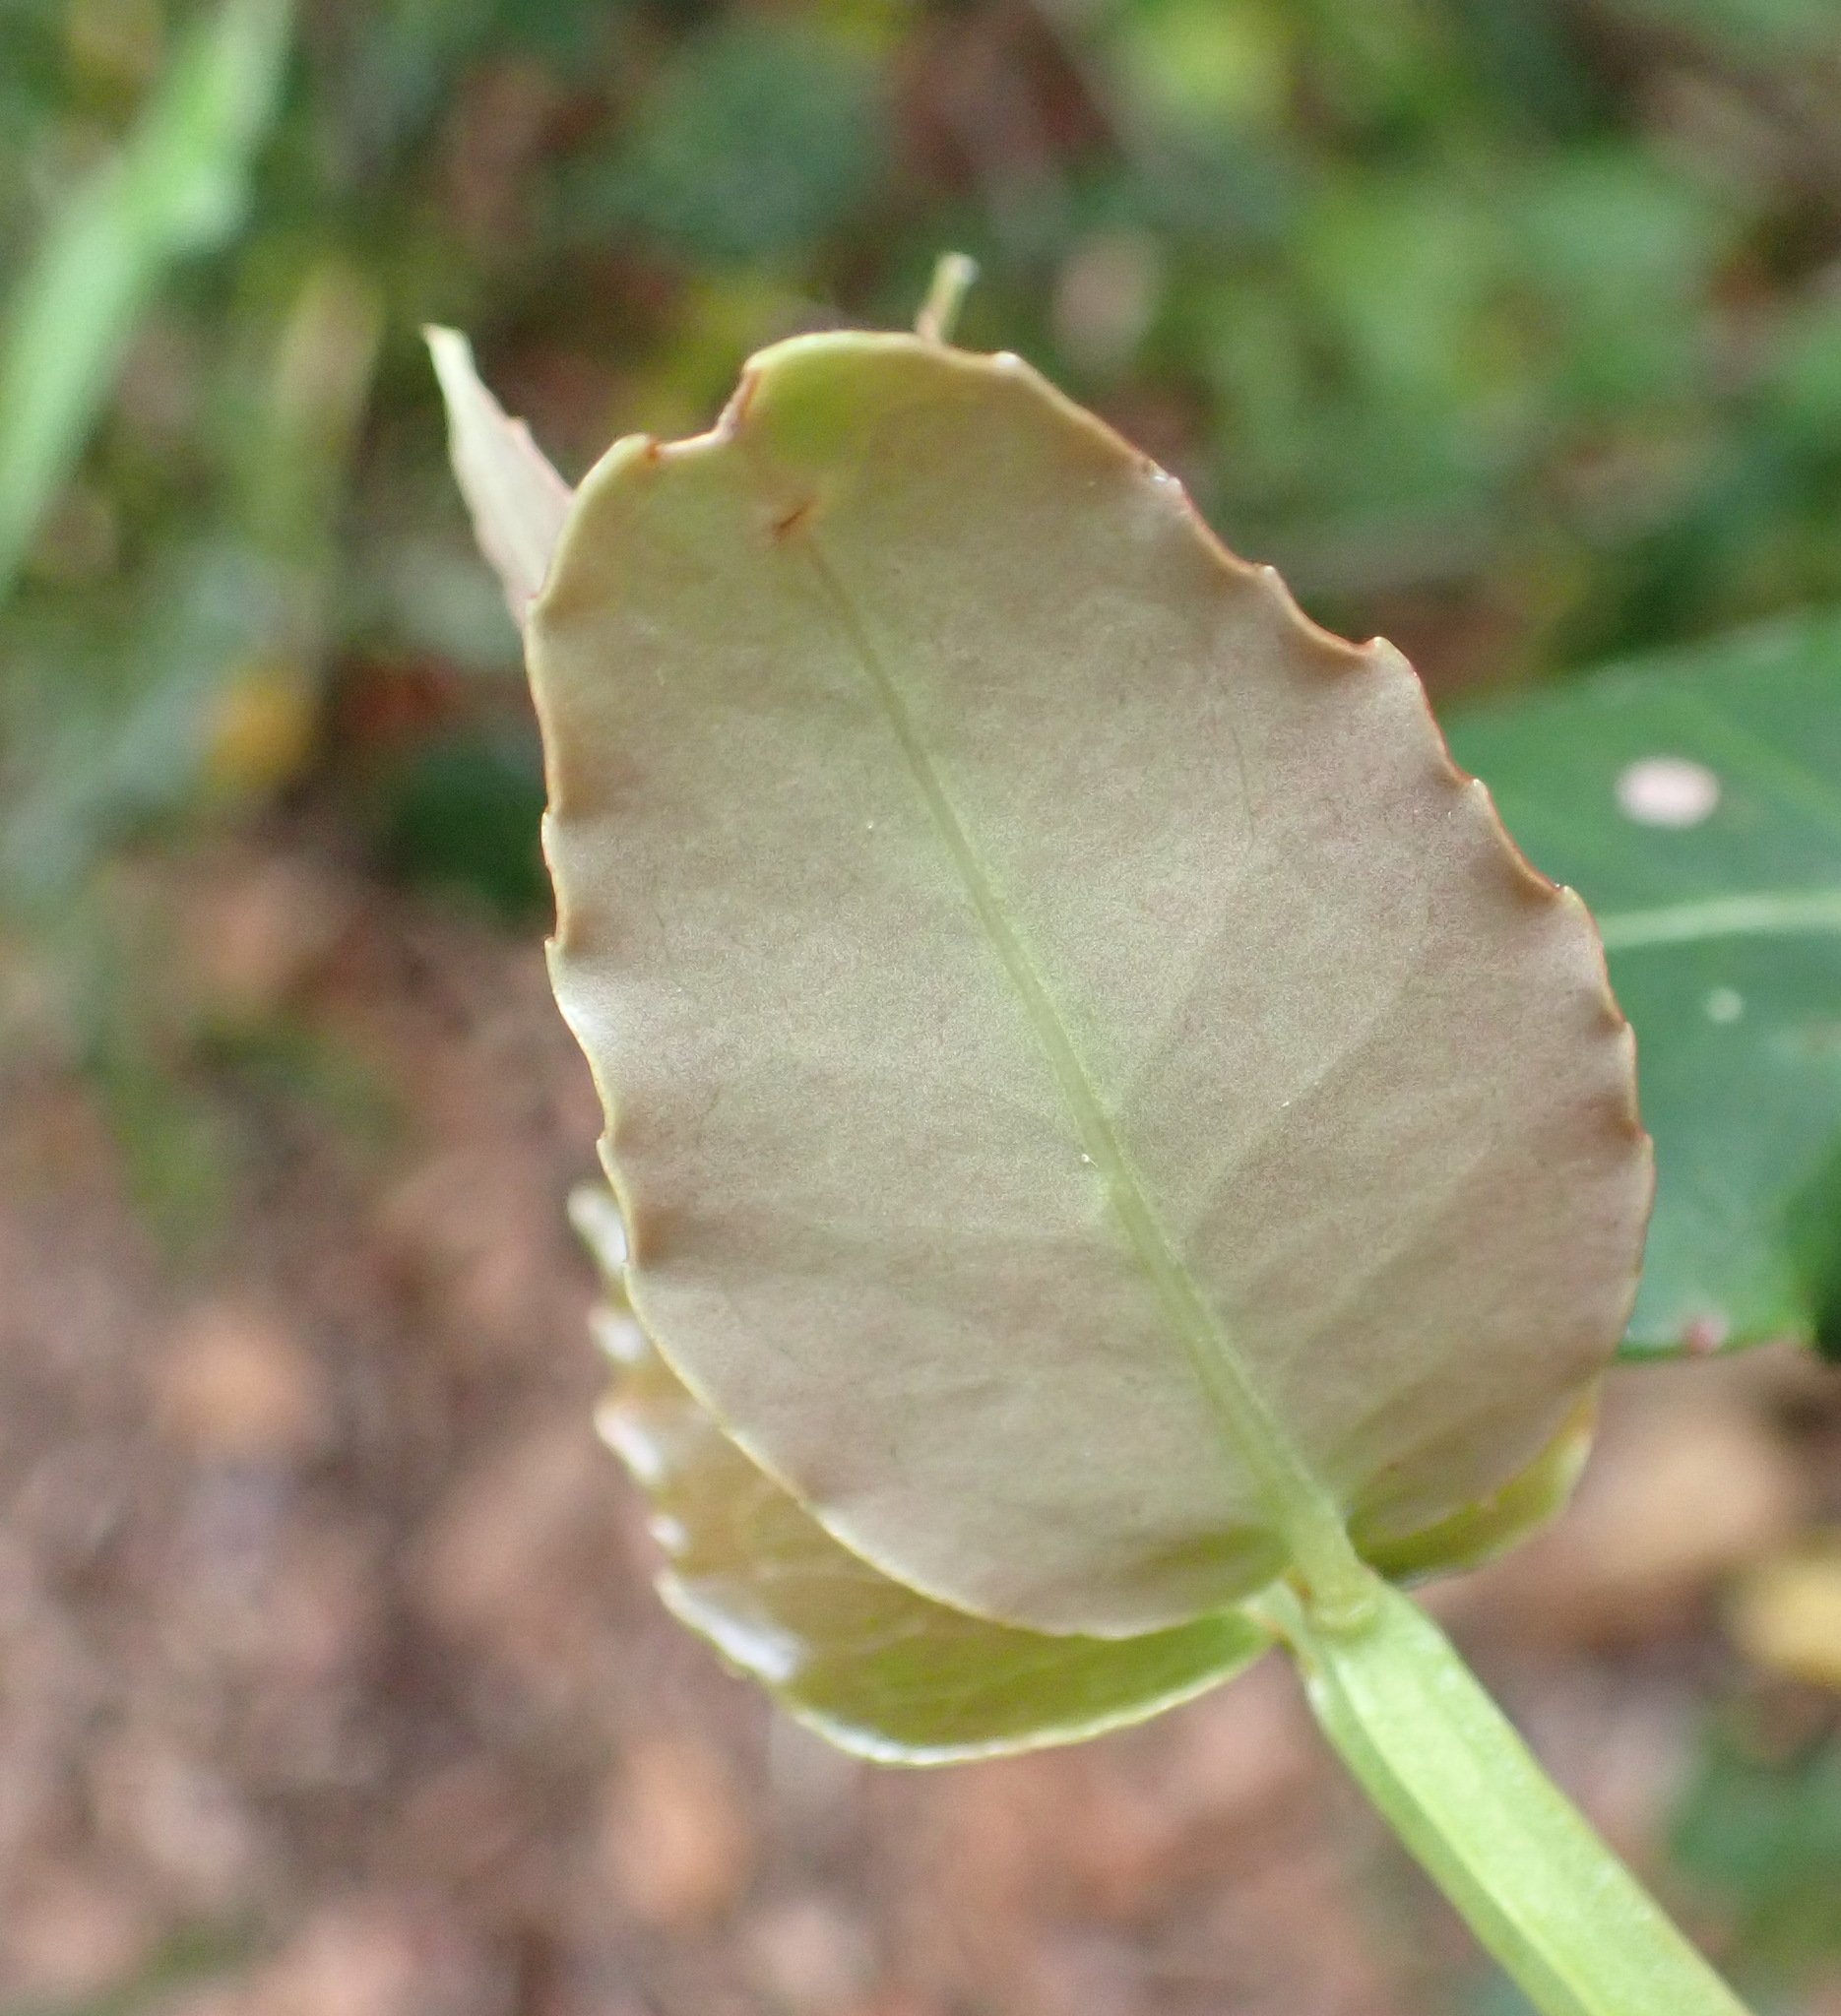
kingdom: Plantae
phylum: Tracheophyta
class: Magnoliopsida
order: Celastrales
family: Celastraceae
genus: Lauridia
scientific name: Lauridia tetragona
